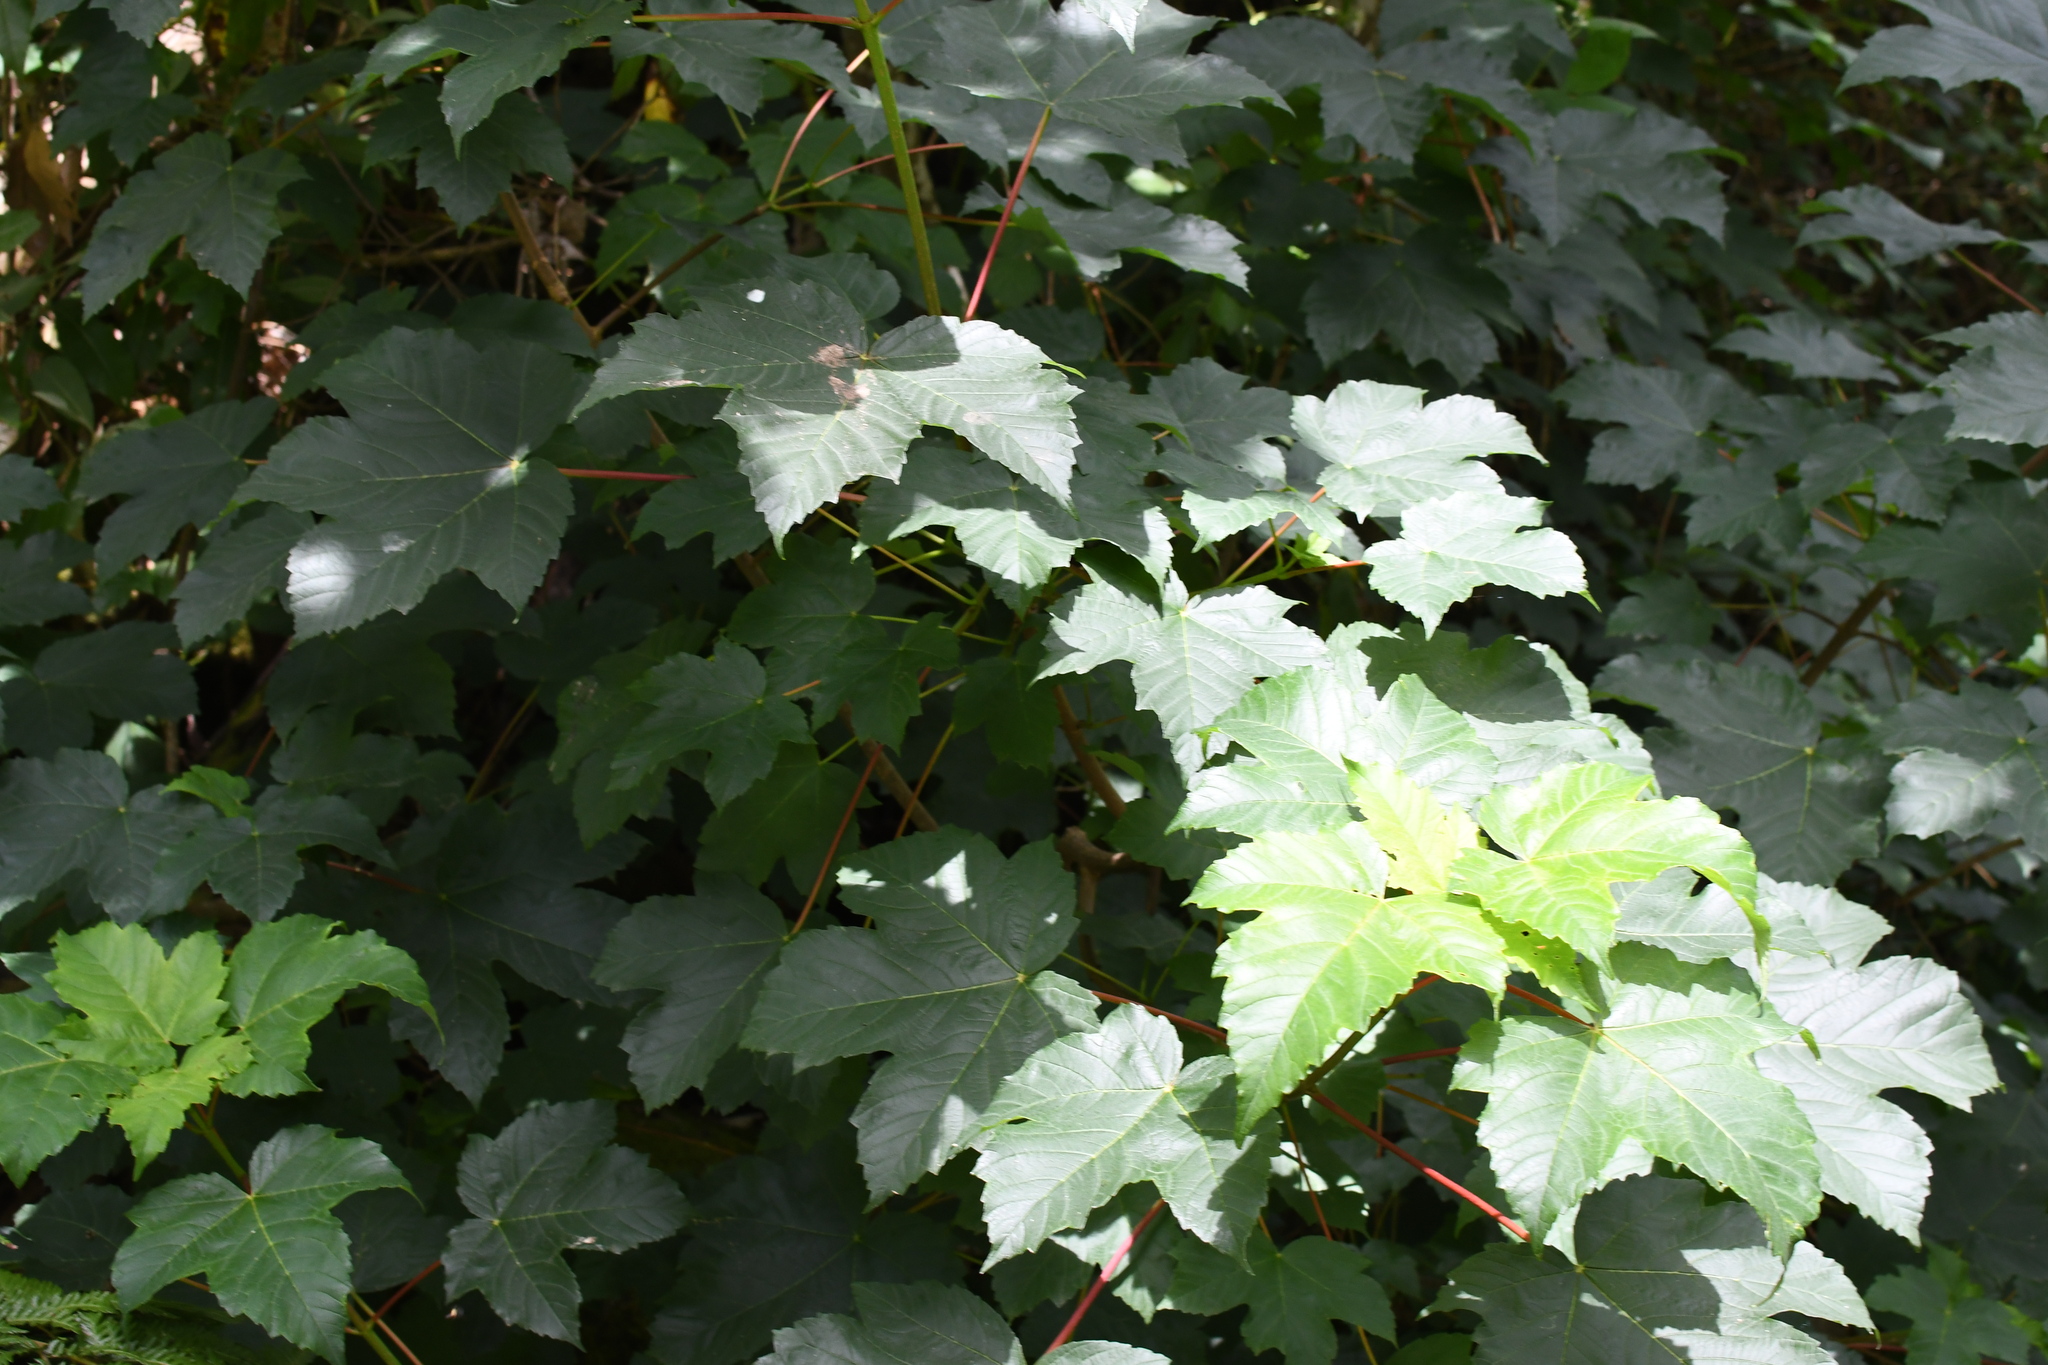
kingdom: Plantae
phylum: Tracheophyta
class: Magnoliopsida
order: Sapindales
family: Sapindaceae
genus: Acer
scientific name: Acer pseudoplatanus
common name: Sycamore
